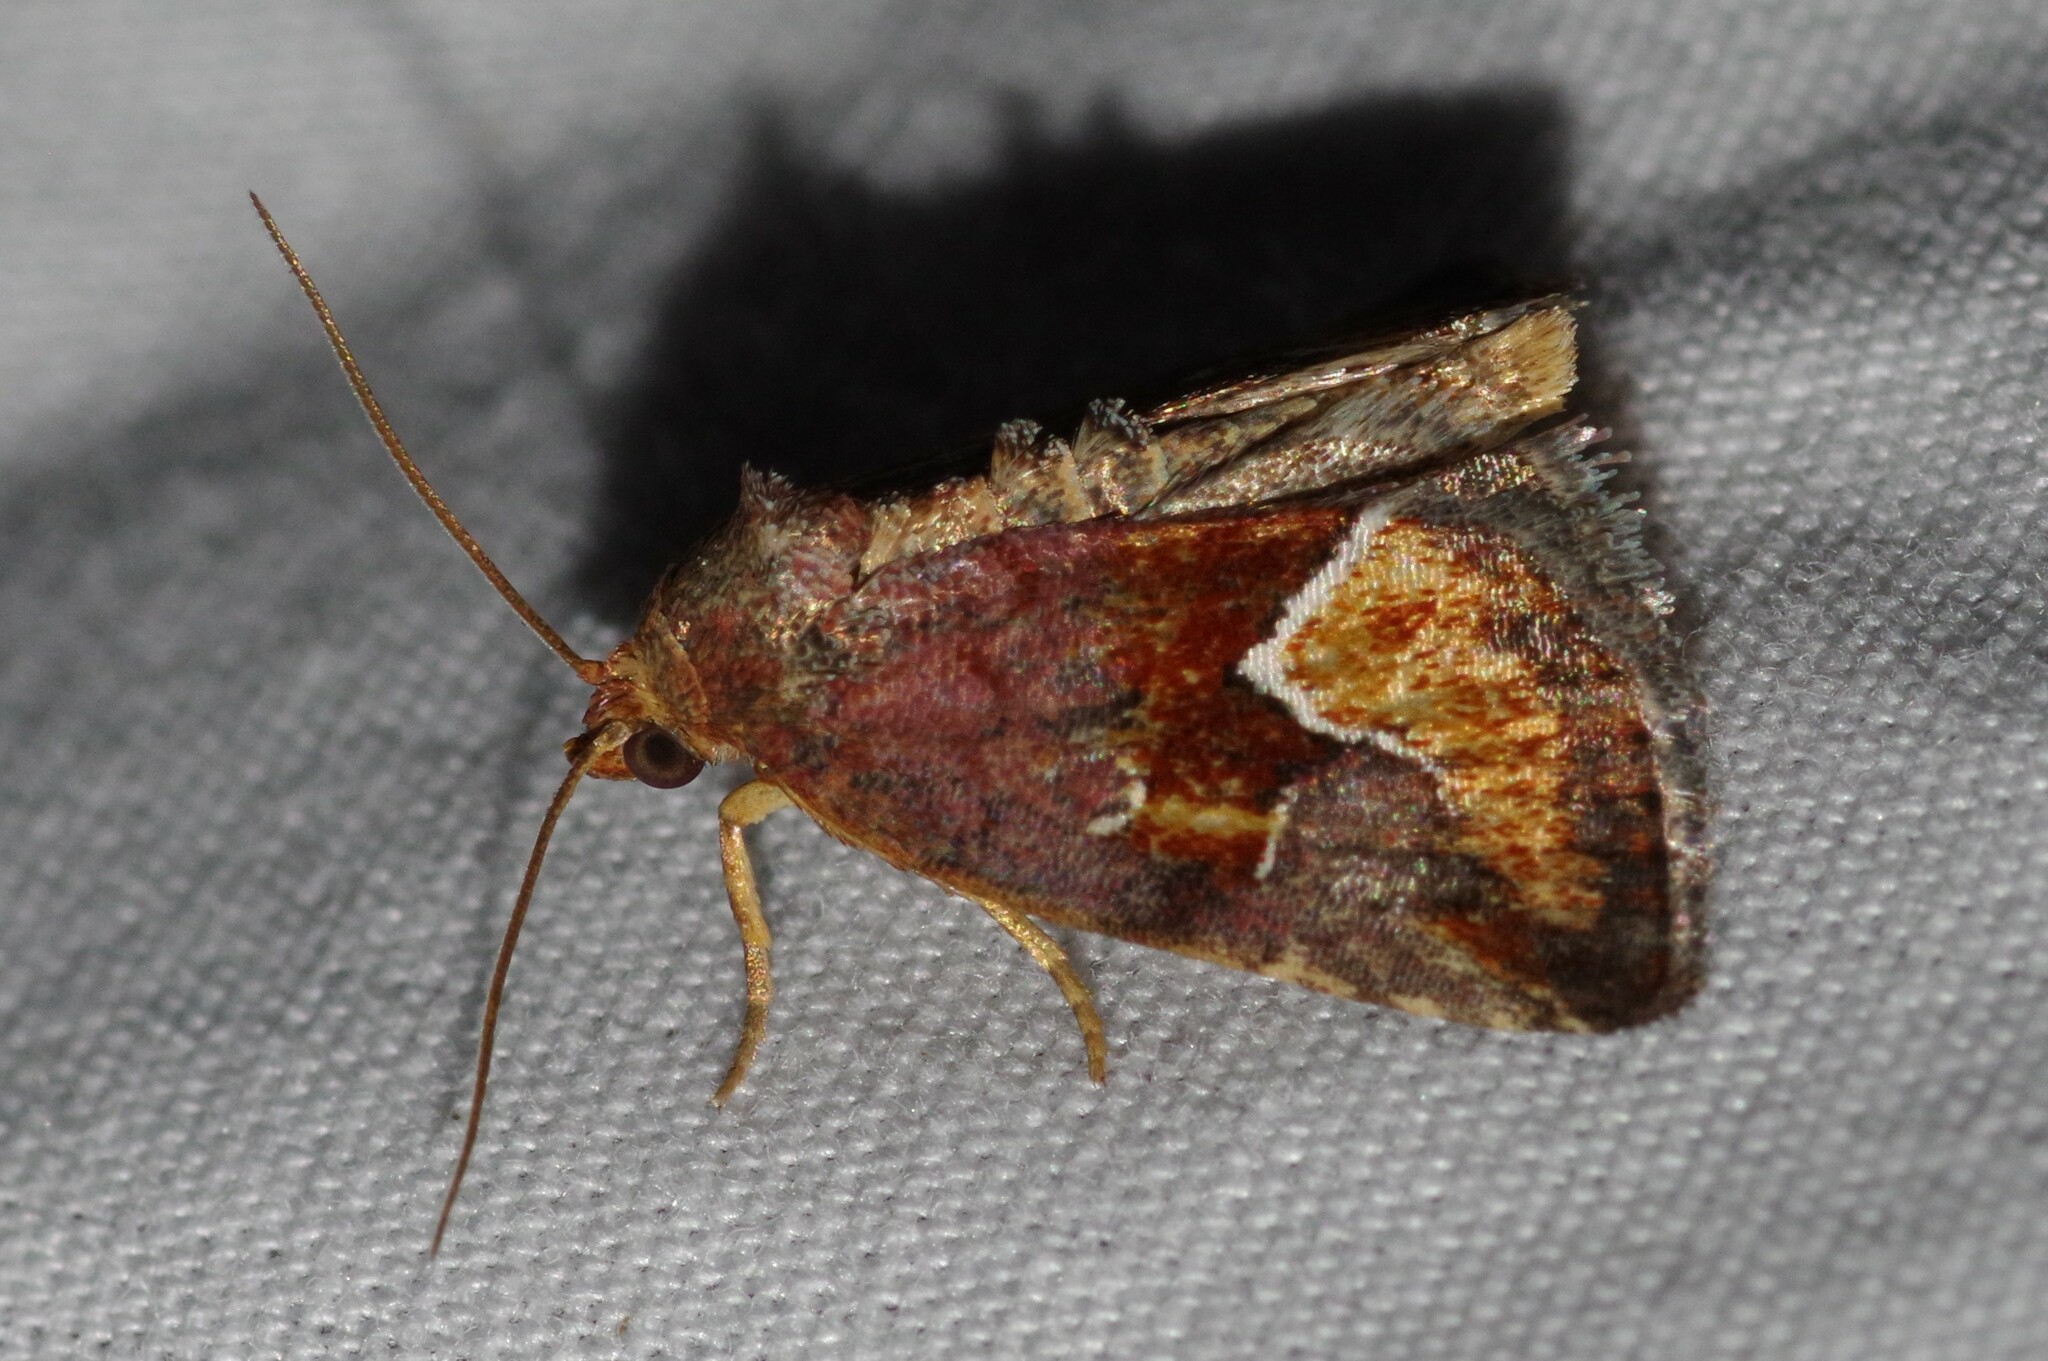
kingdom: Animalia
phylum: Arthropoda
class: Insecta
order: Lepidoptera
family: Noctuidae
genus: Deltote
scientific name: Deltote bellicula
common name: Bog glyph
